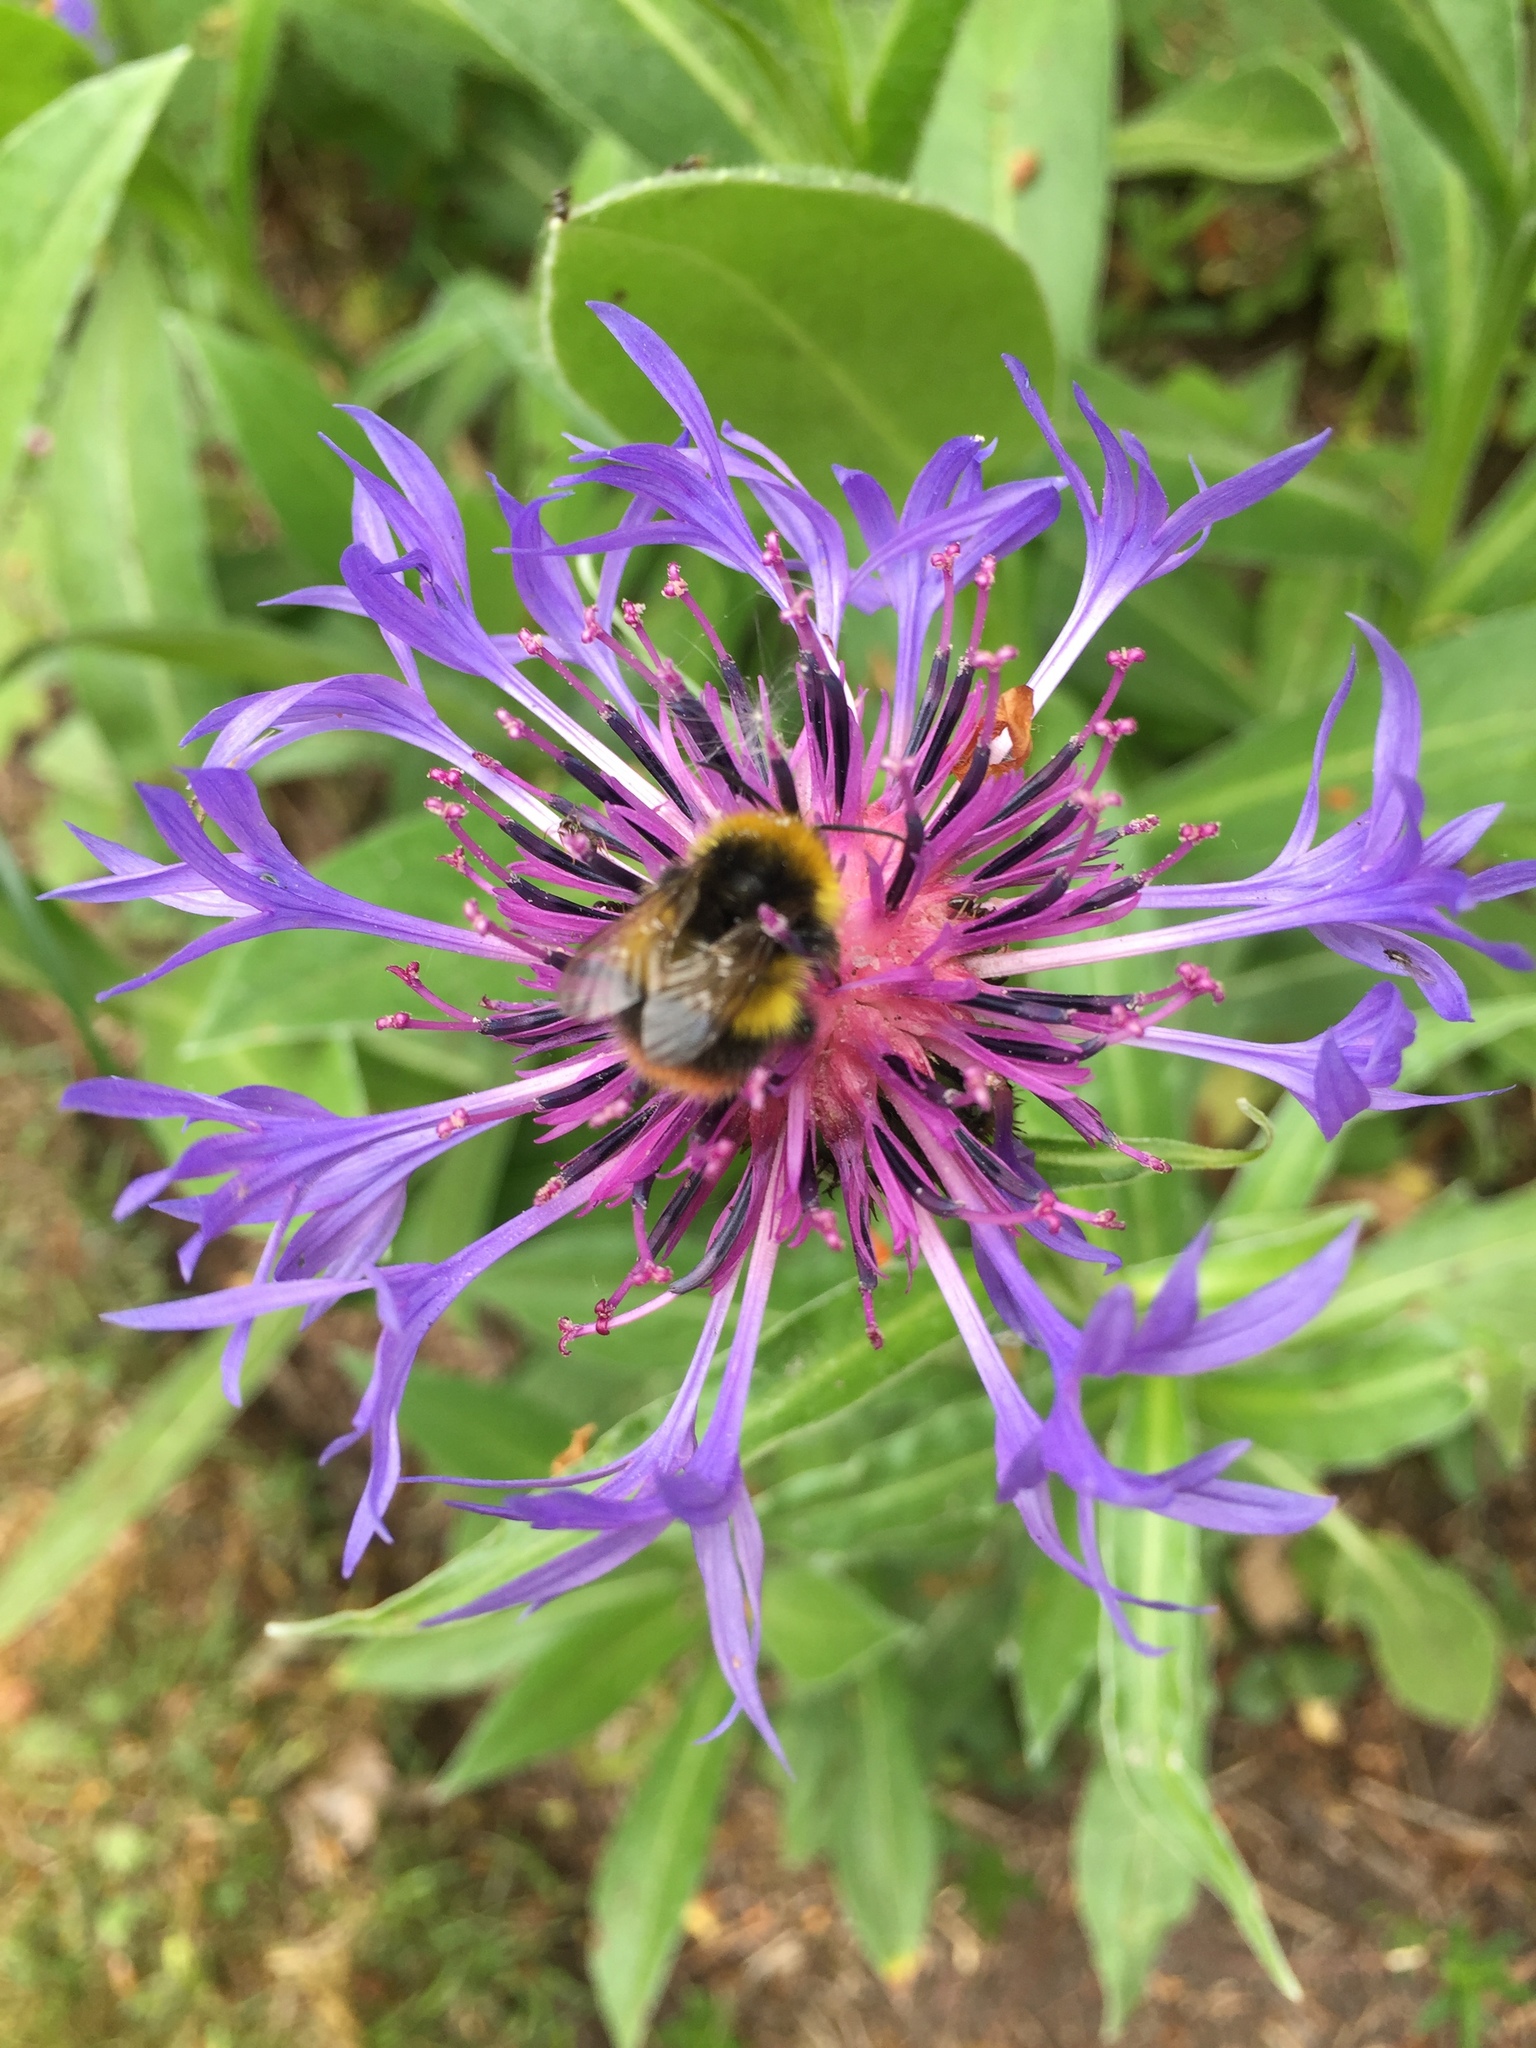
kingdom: Animalia
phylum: Arthropoda
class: Insecta
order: Hymenoptera
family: Apidae
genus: Bombus
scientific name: Bombus pratorum
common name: Early humble-bee
